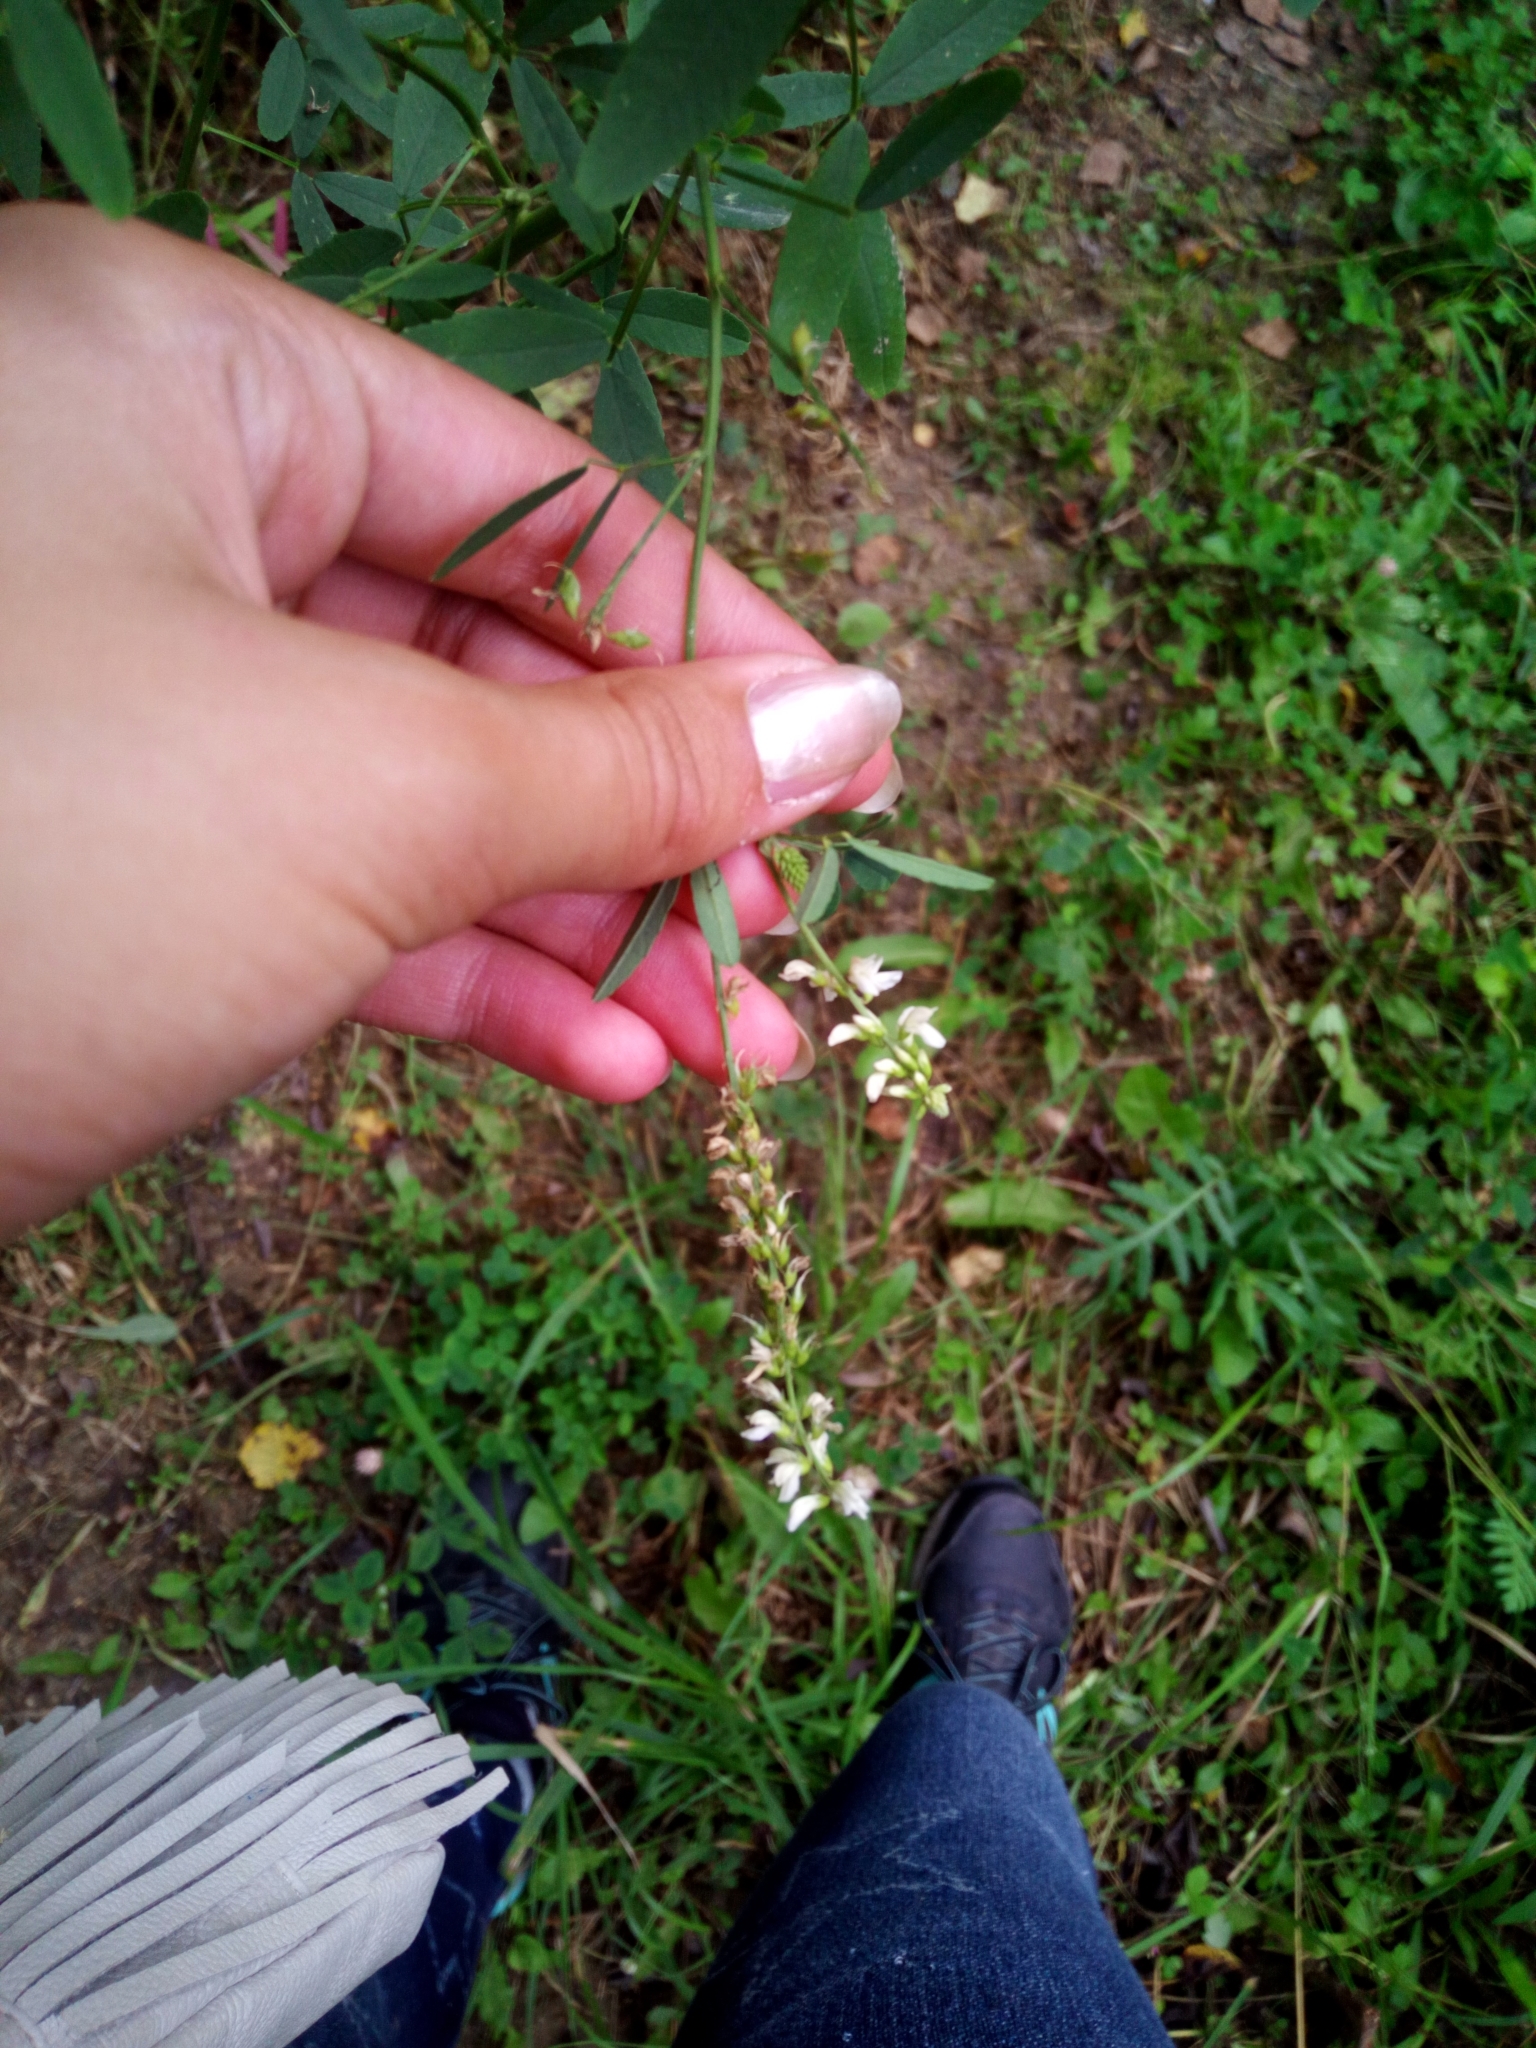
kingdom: Plantae
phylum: Tracheophyta
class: Magnoliopsida
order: Fabales
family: Fabaceae
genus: Melilotus
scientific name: Melilotus albus
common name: White melilot
